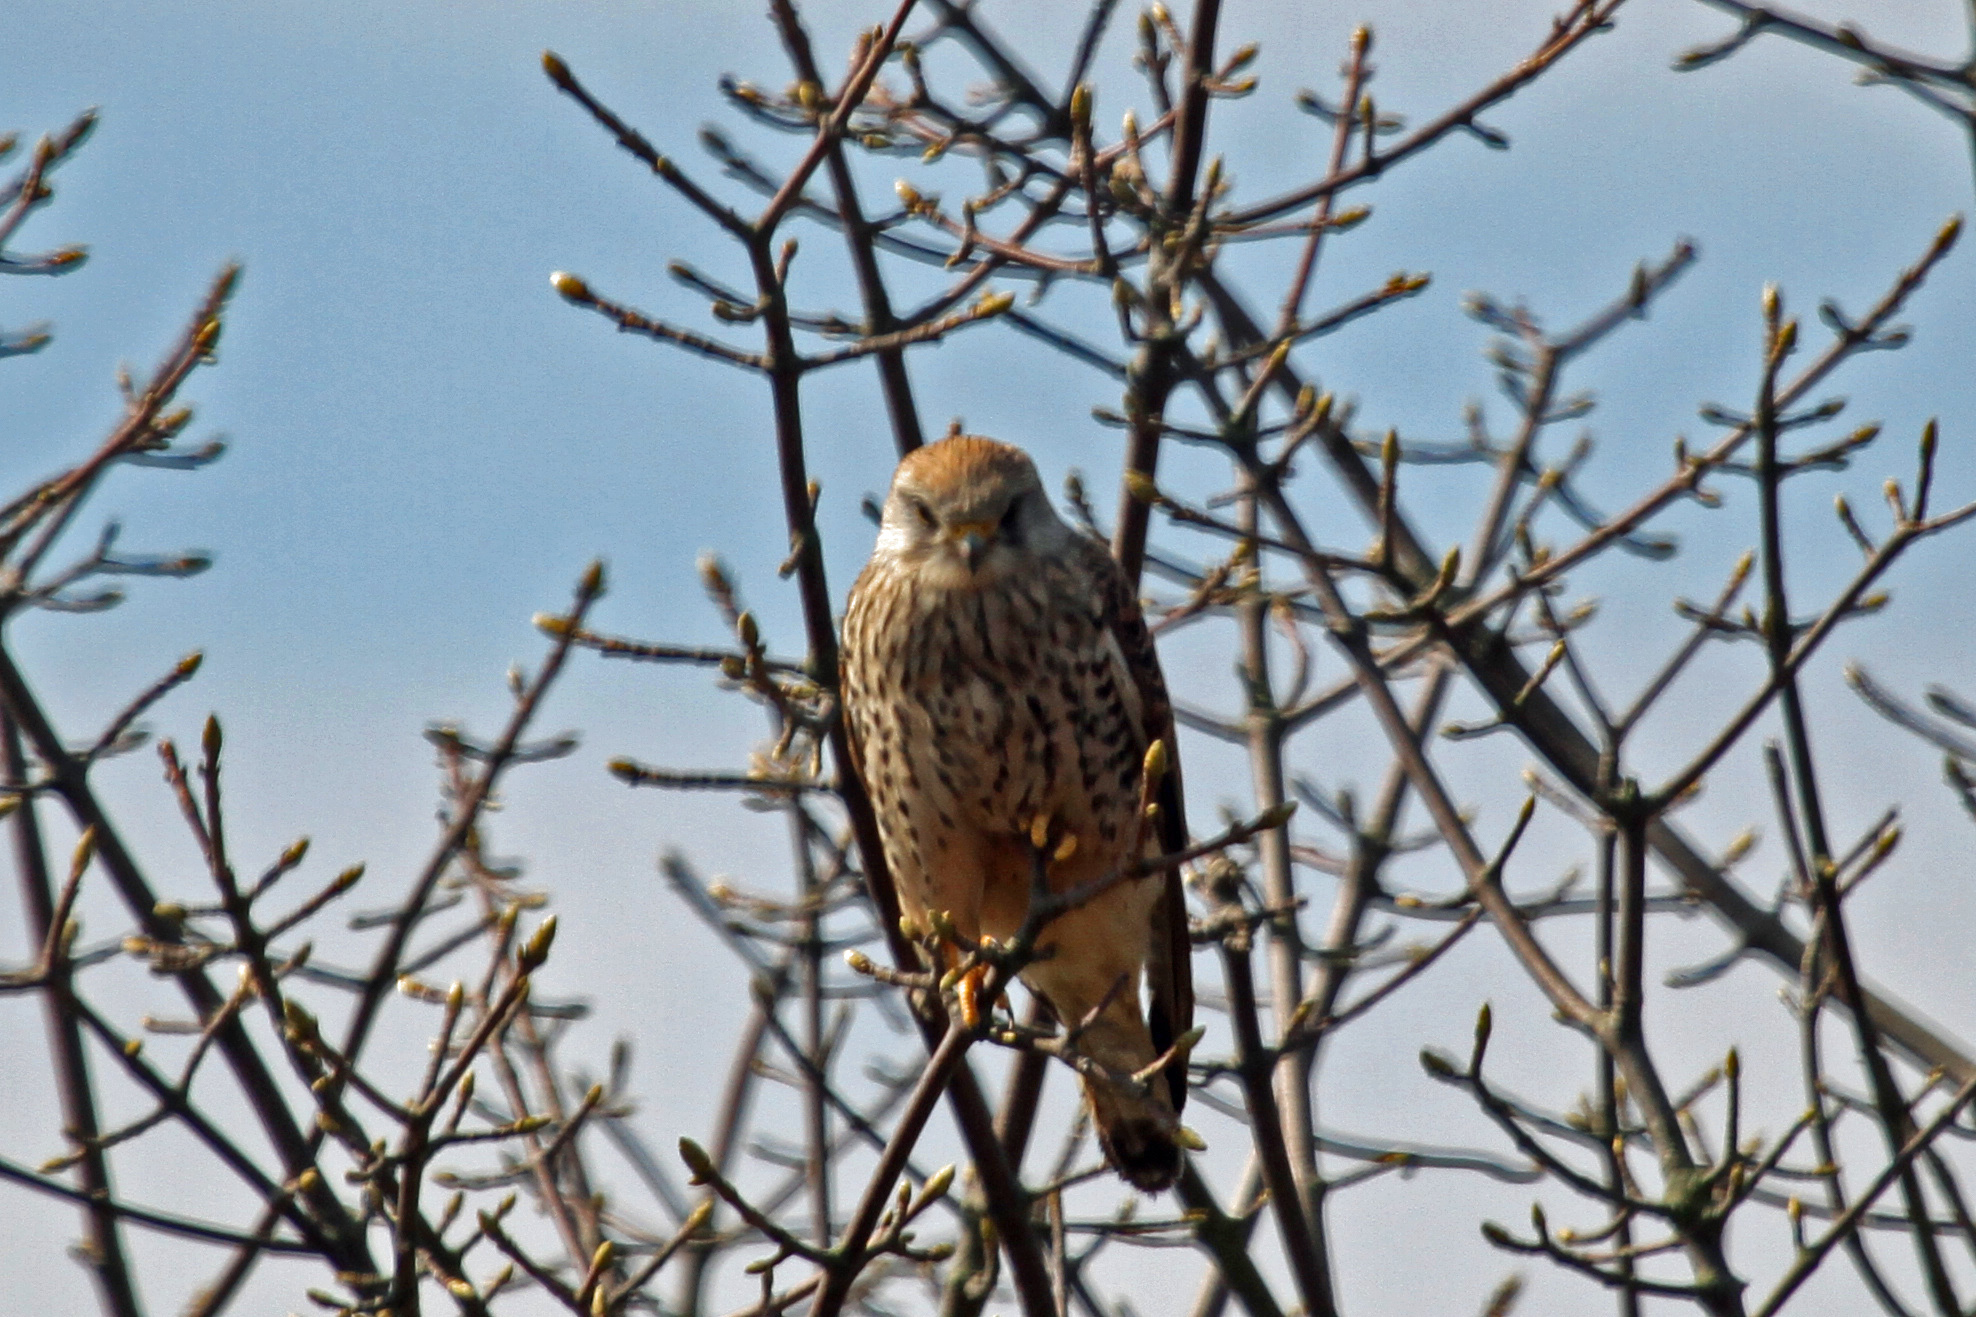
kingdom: Animalia
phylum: Chordata
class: Aves
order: Falconiformes
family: Falconidae
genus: Falco
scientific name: Falco tinnunculus
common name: Common kestrel
